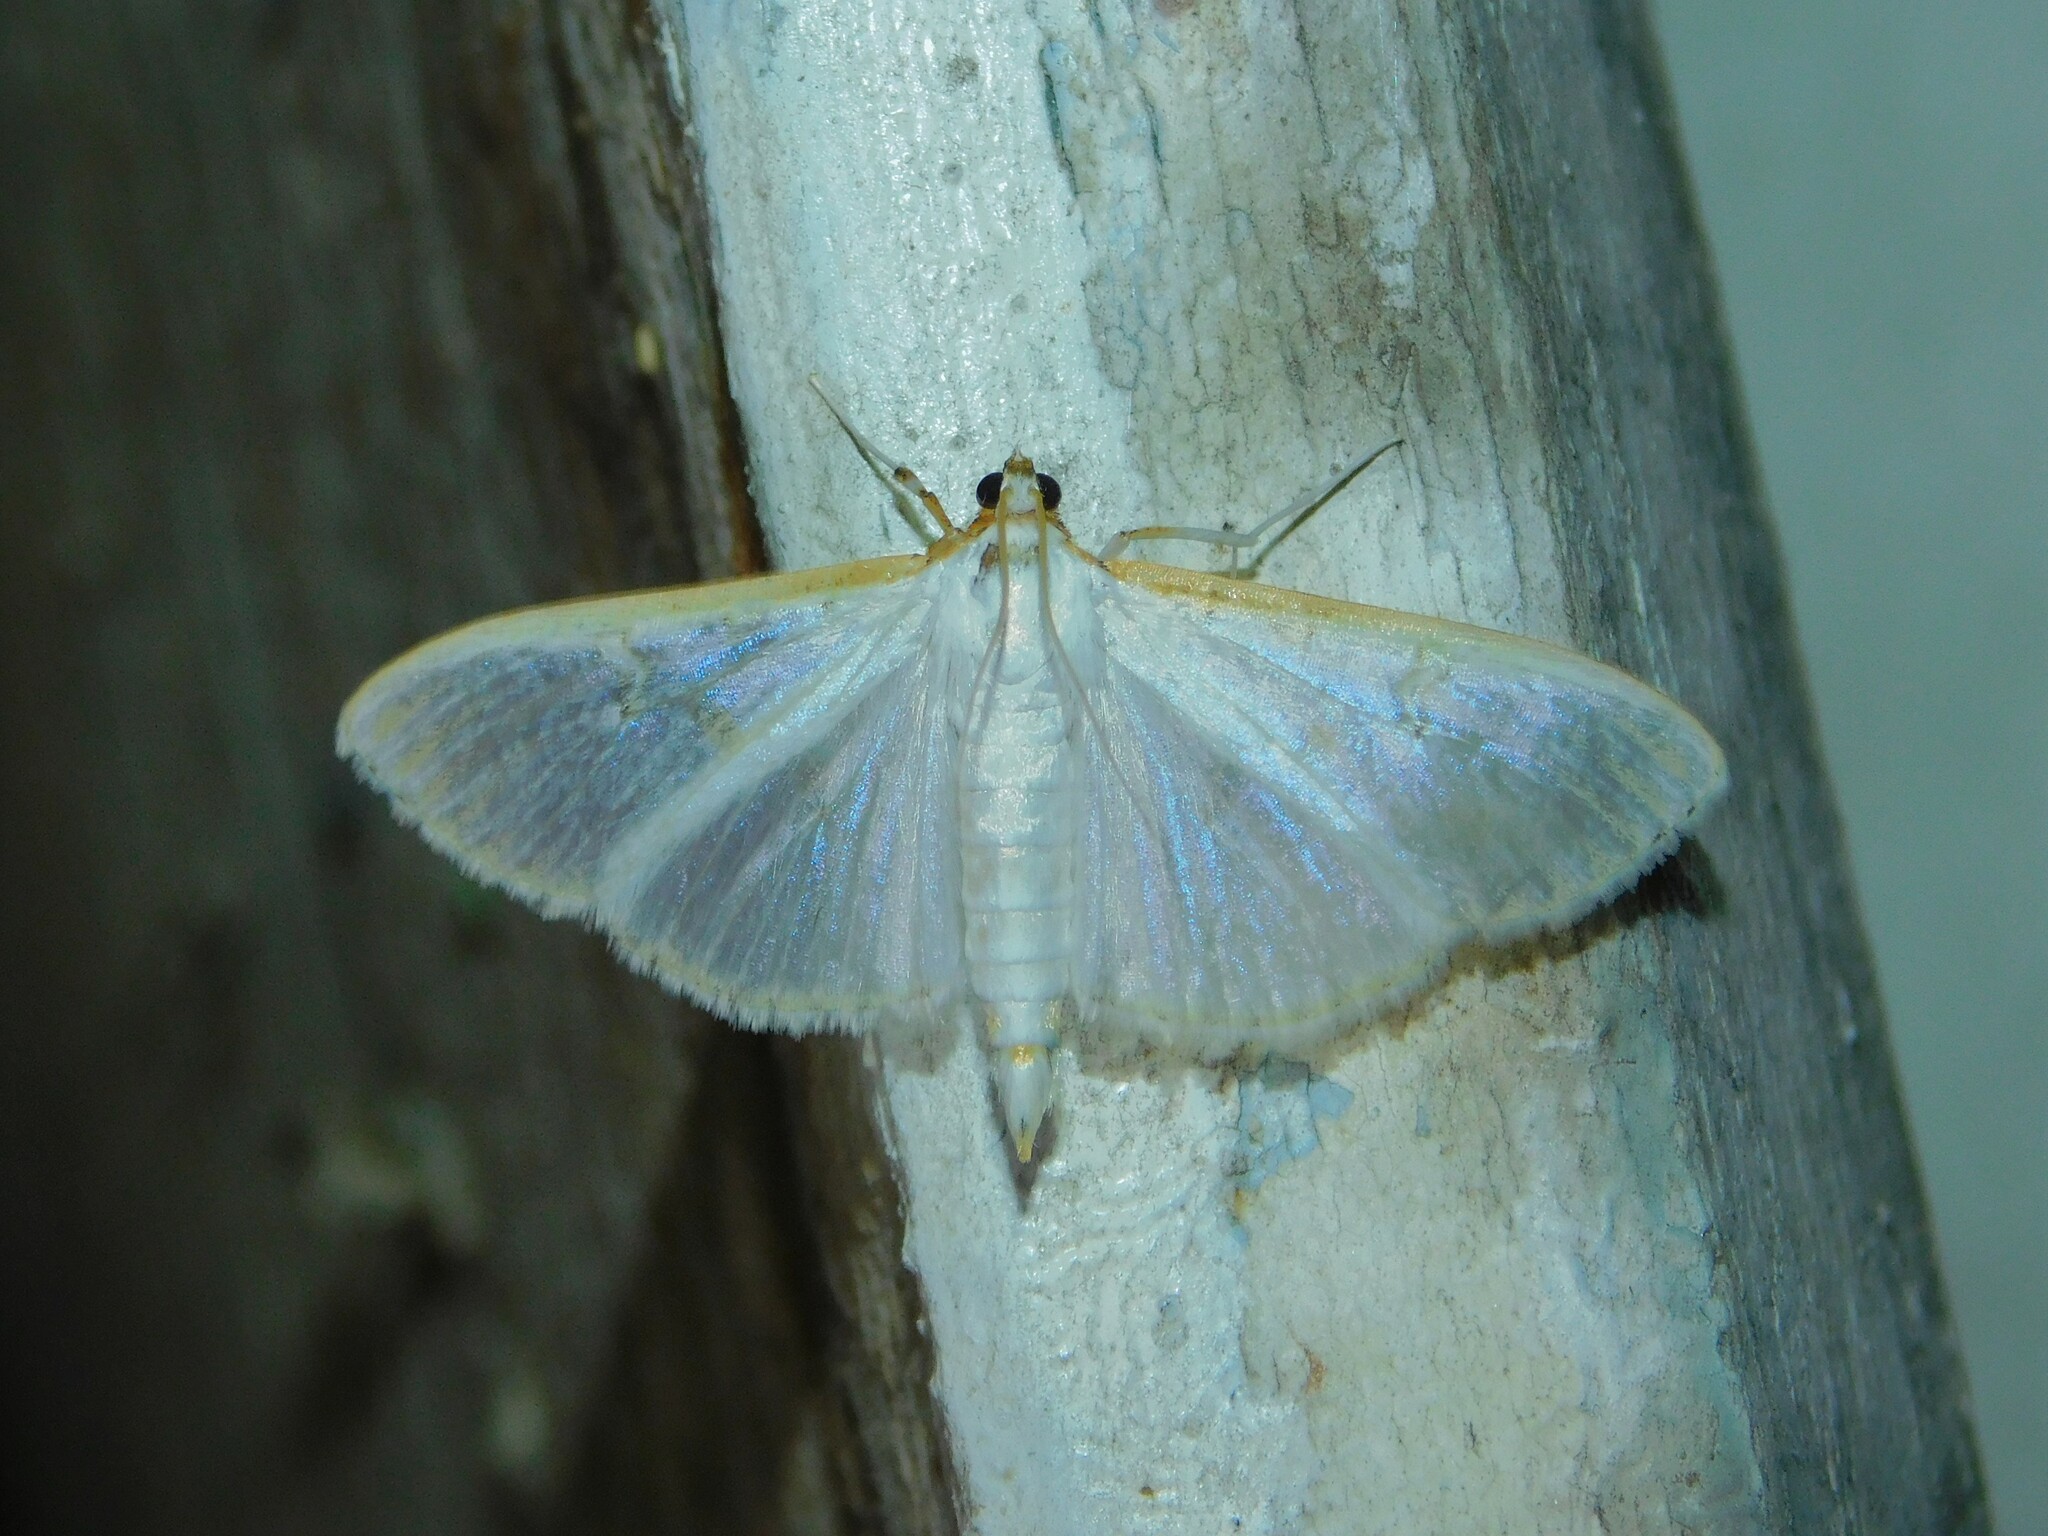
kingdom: Animalia
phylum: Arthropoda
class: Insecta
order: Lepidoptera
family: Crambidae
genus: Palpita
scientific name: Palpita vitrealis
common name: Olive-tree pearl
